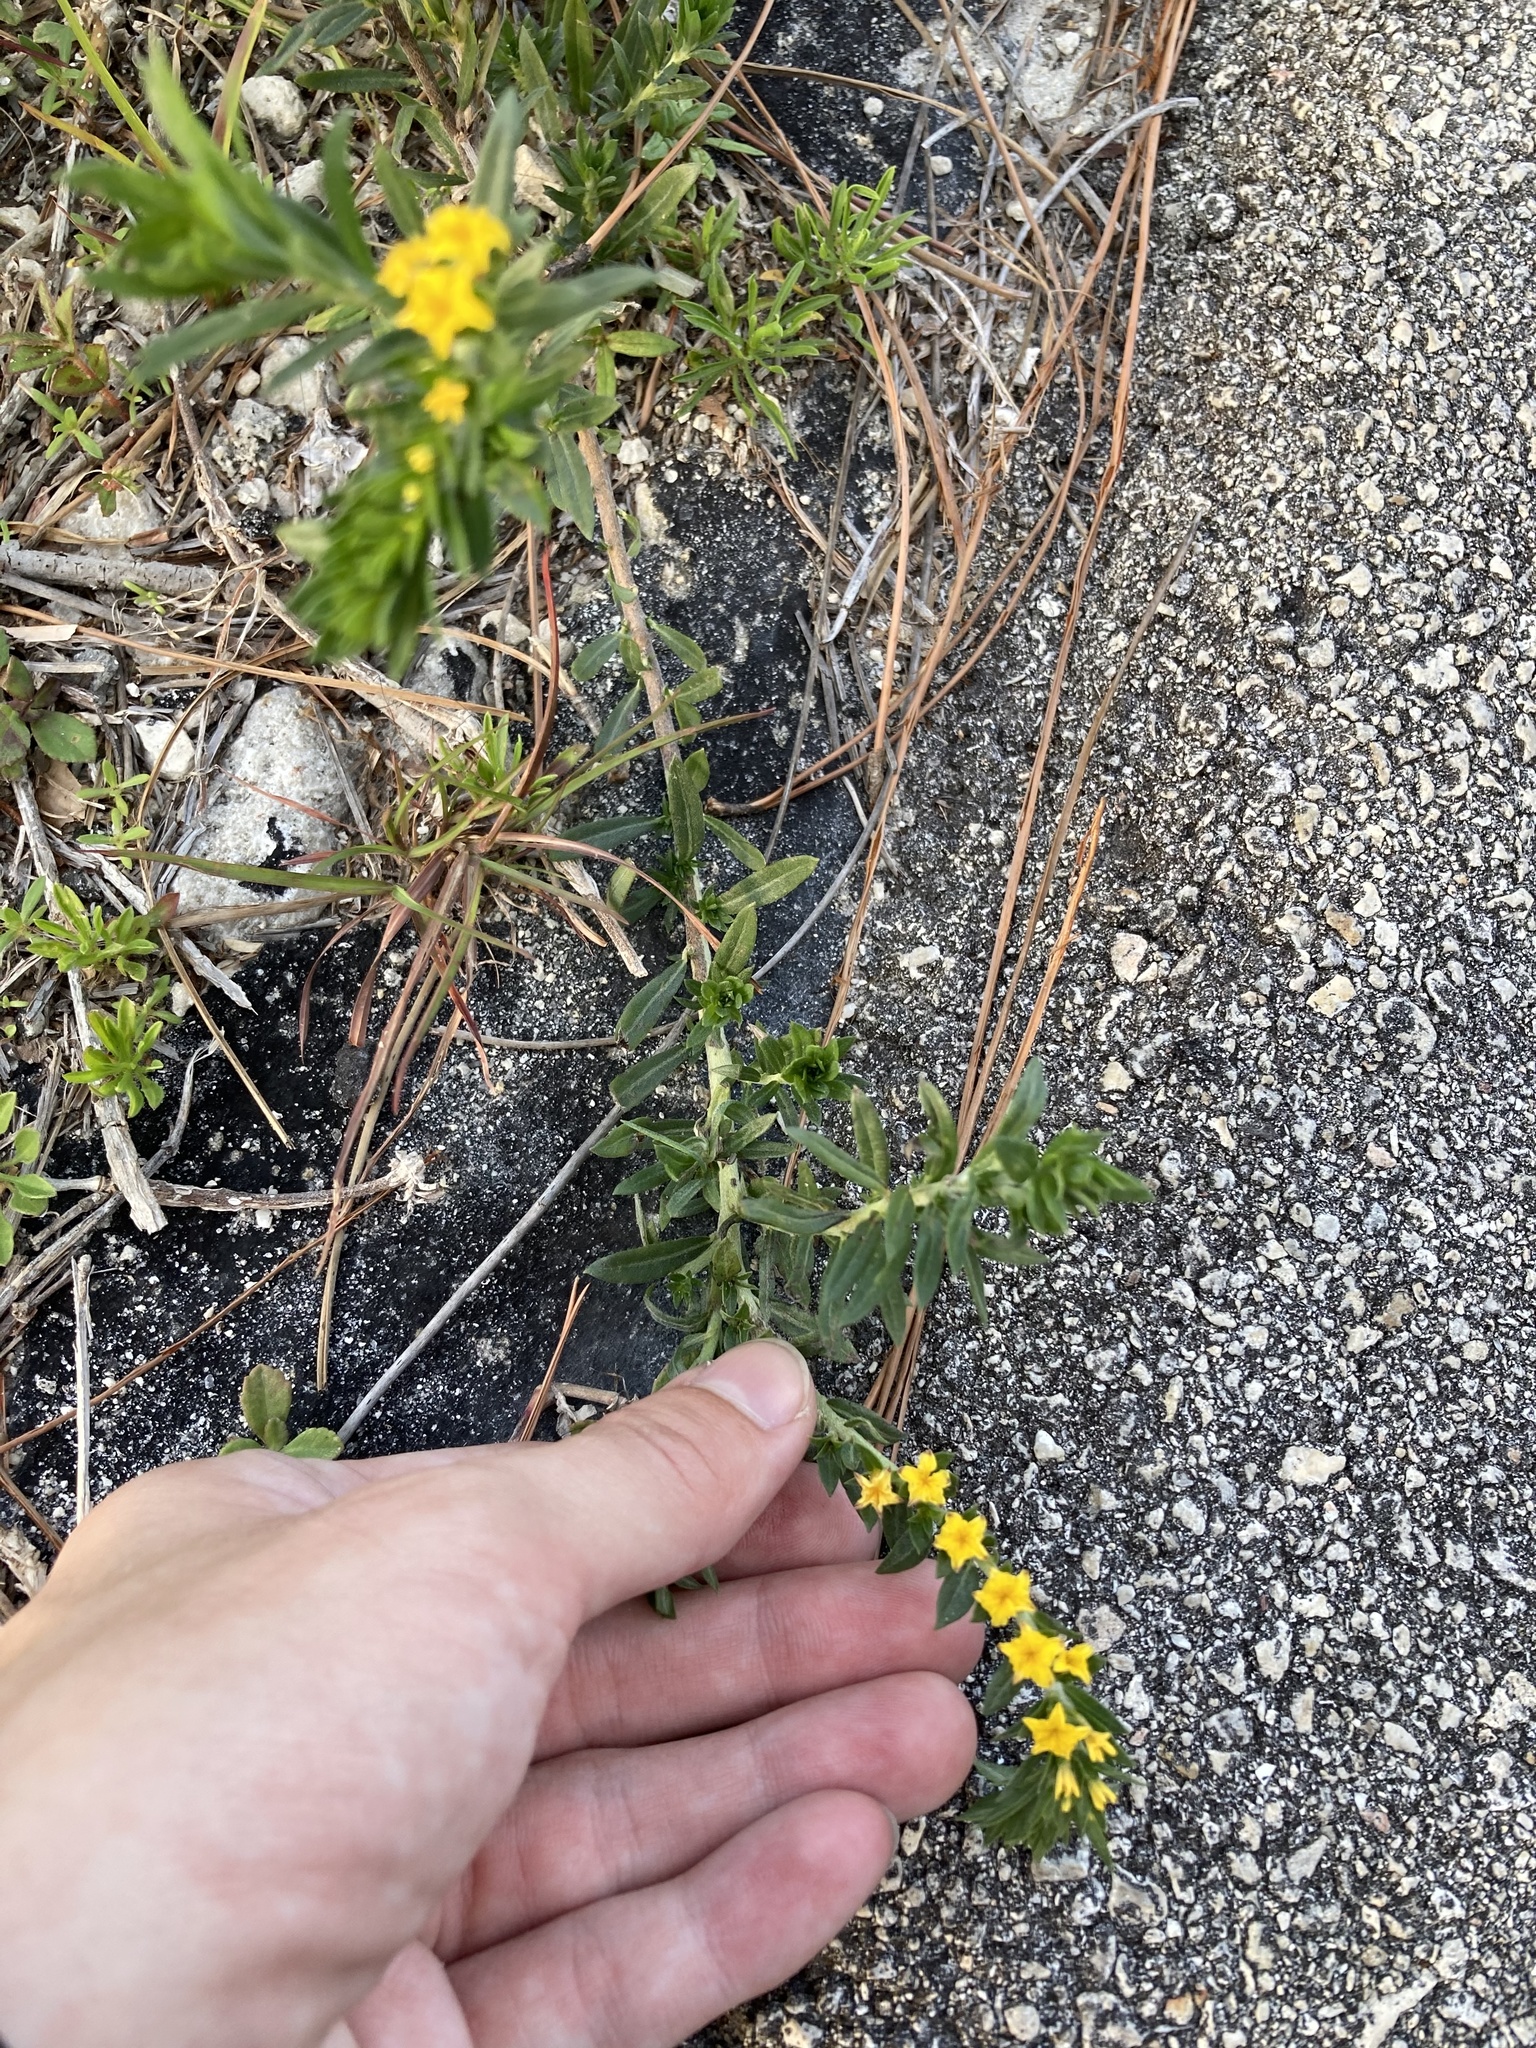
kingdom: Plantae
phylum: Tracheophyta
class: Magnoliopsida
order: Boraginales
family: Heliotropiaceae
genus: Euploca
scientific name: Euploca polyphylla
